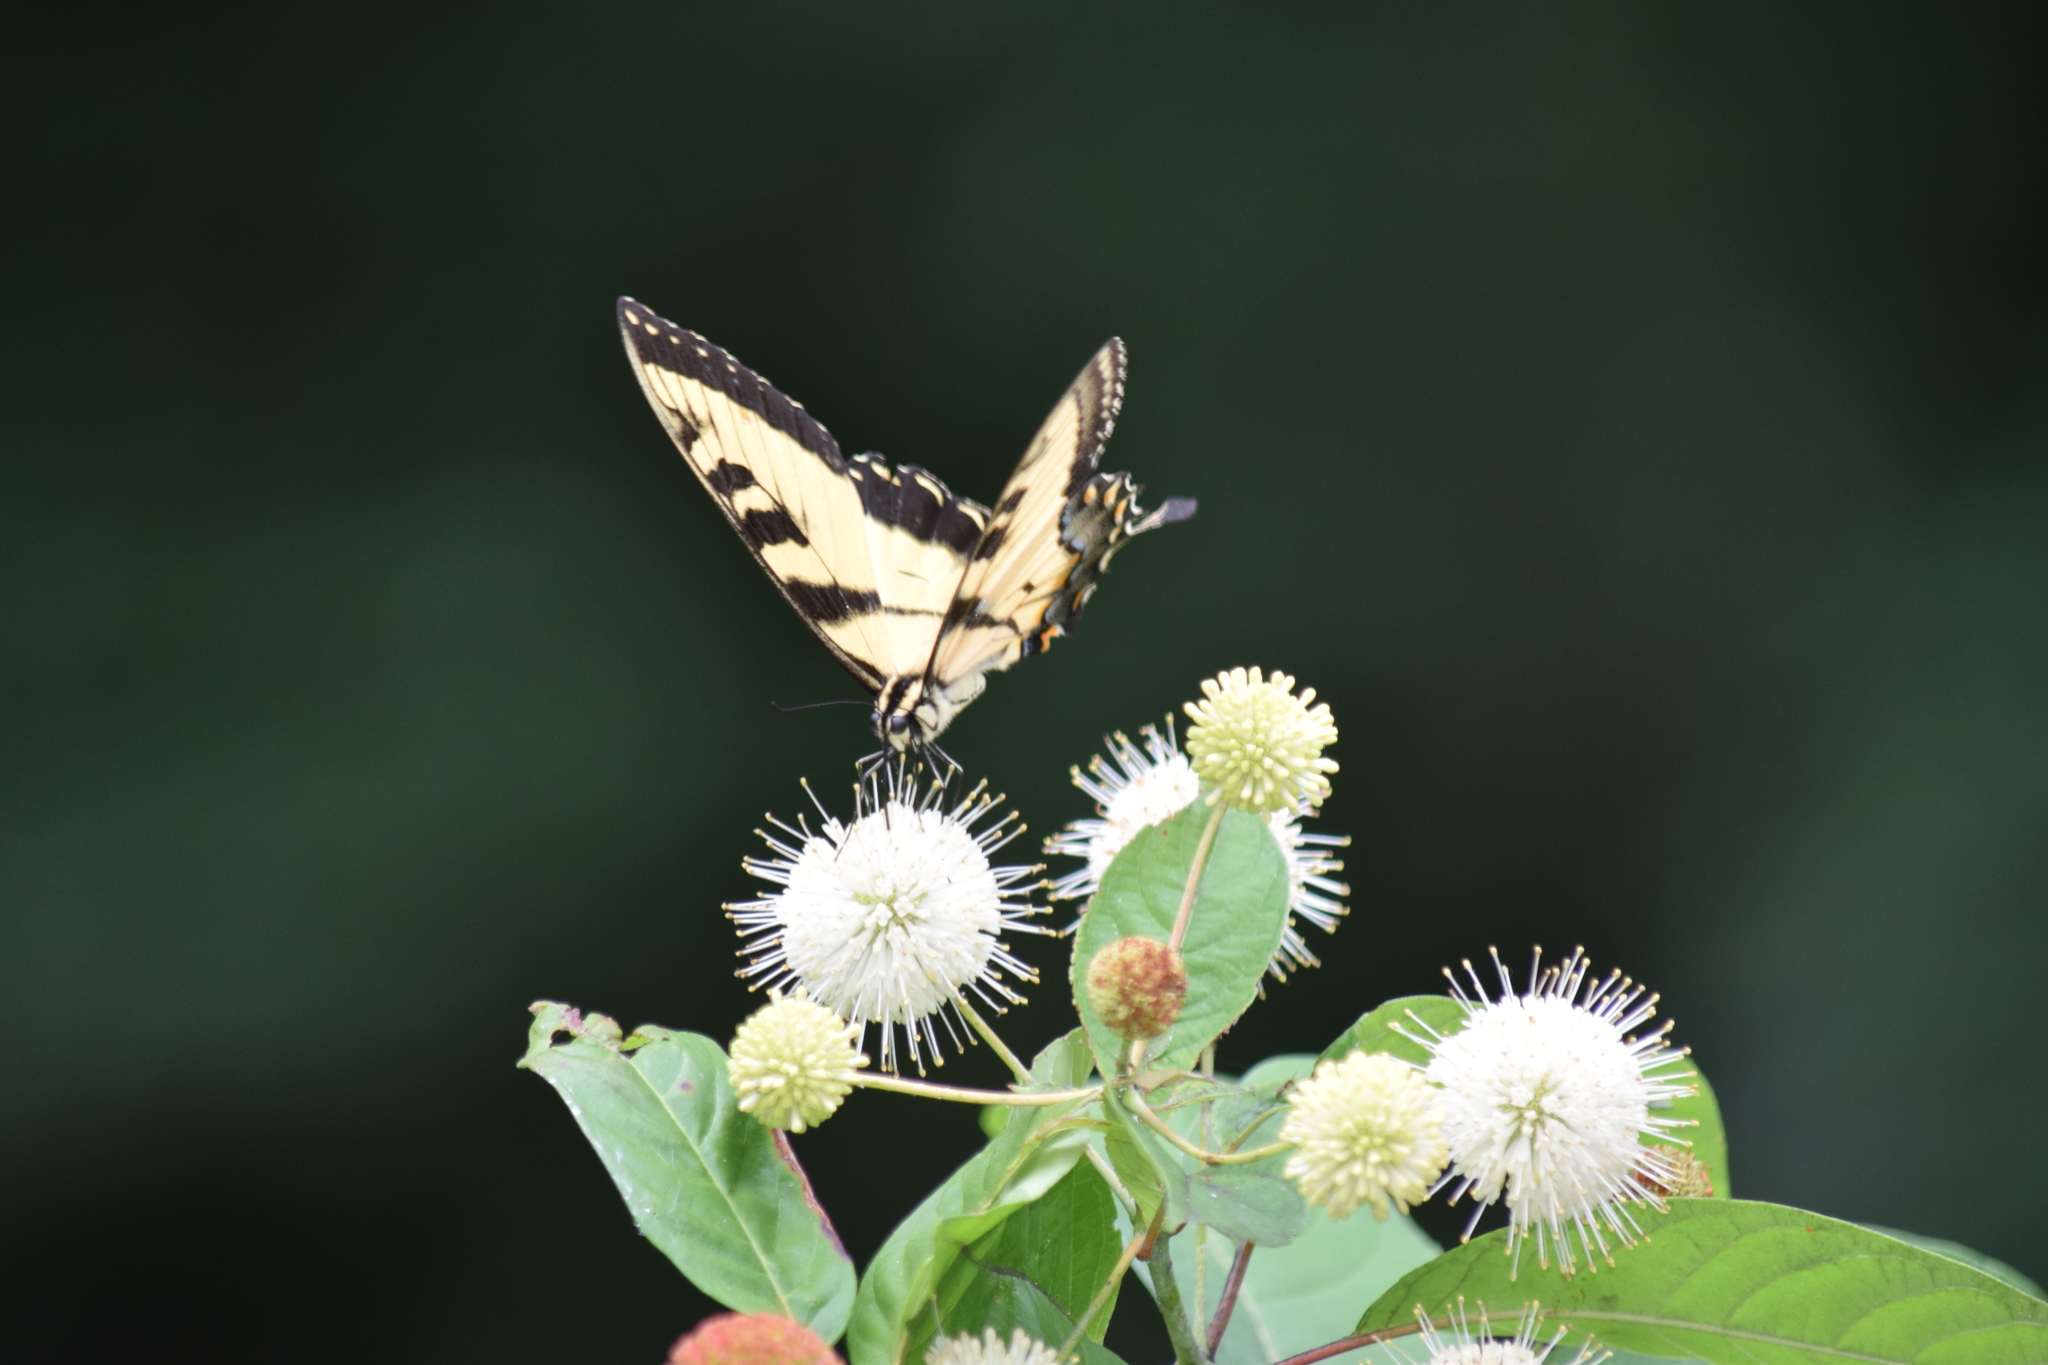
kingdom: Animalia
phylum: Arthropoda
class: Insecta
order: Lepidoptera
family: Papilionidae
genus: Papilio
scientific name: Papilio glaucus
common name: Tiger swallowtail
